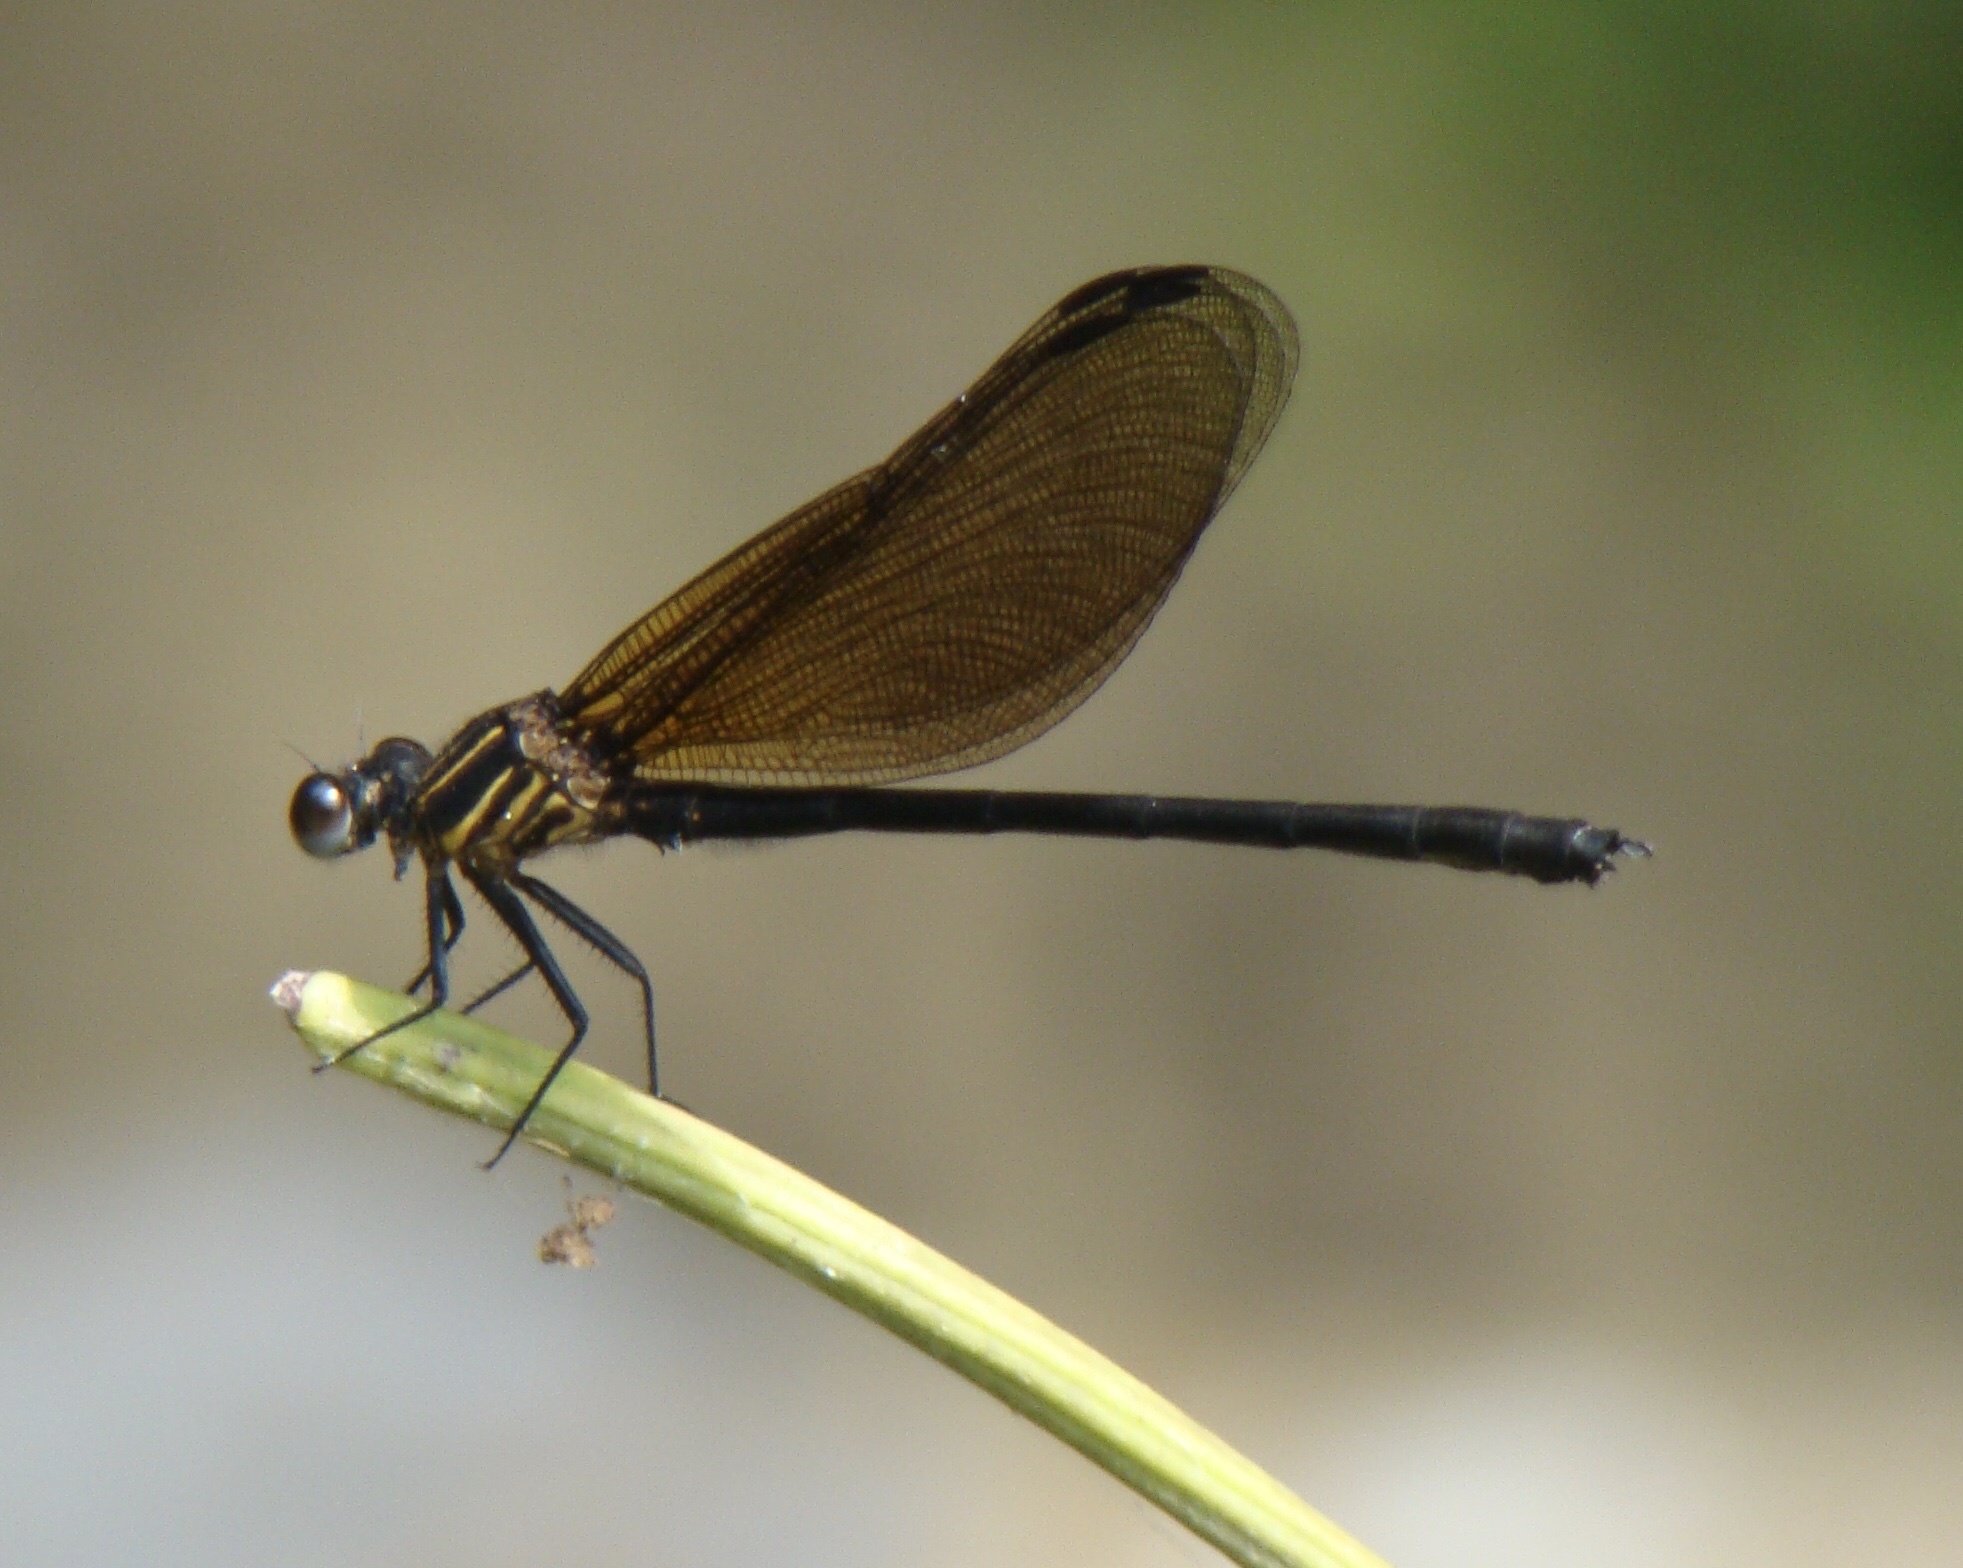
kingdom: Animalia
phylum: Arthropoda
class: Insecta
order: Odonata
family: Euphaeidae
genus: Euphaea
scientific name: Euphaea pahyapi
